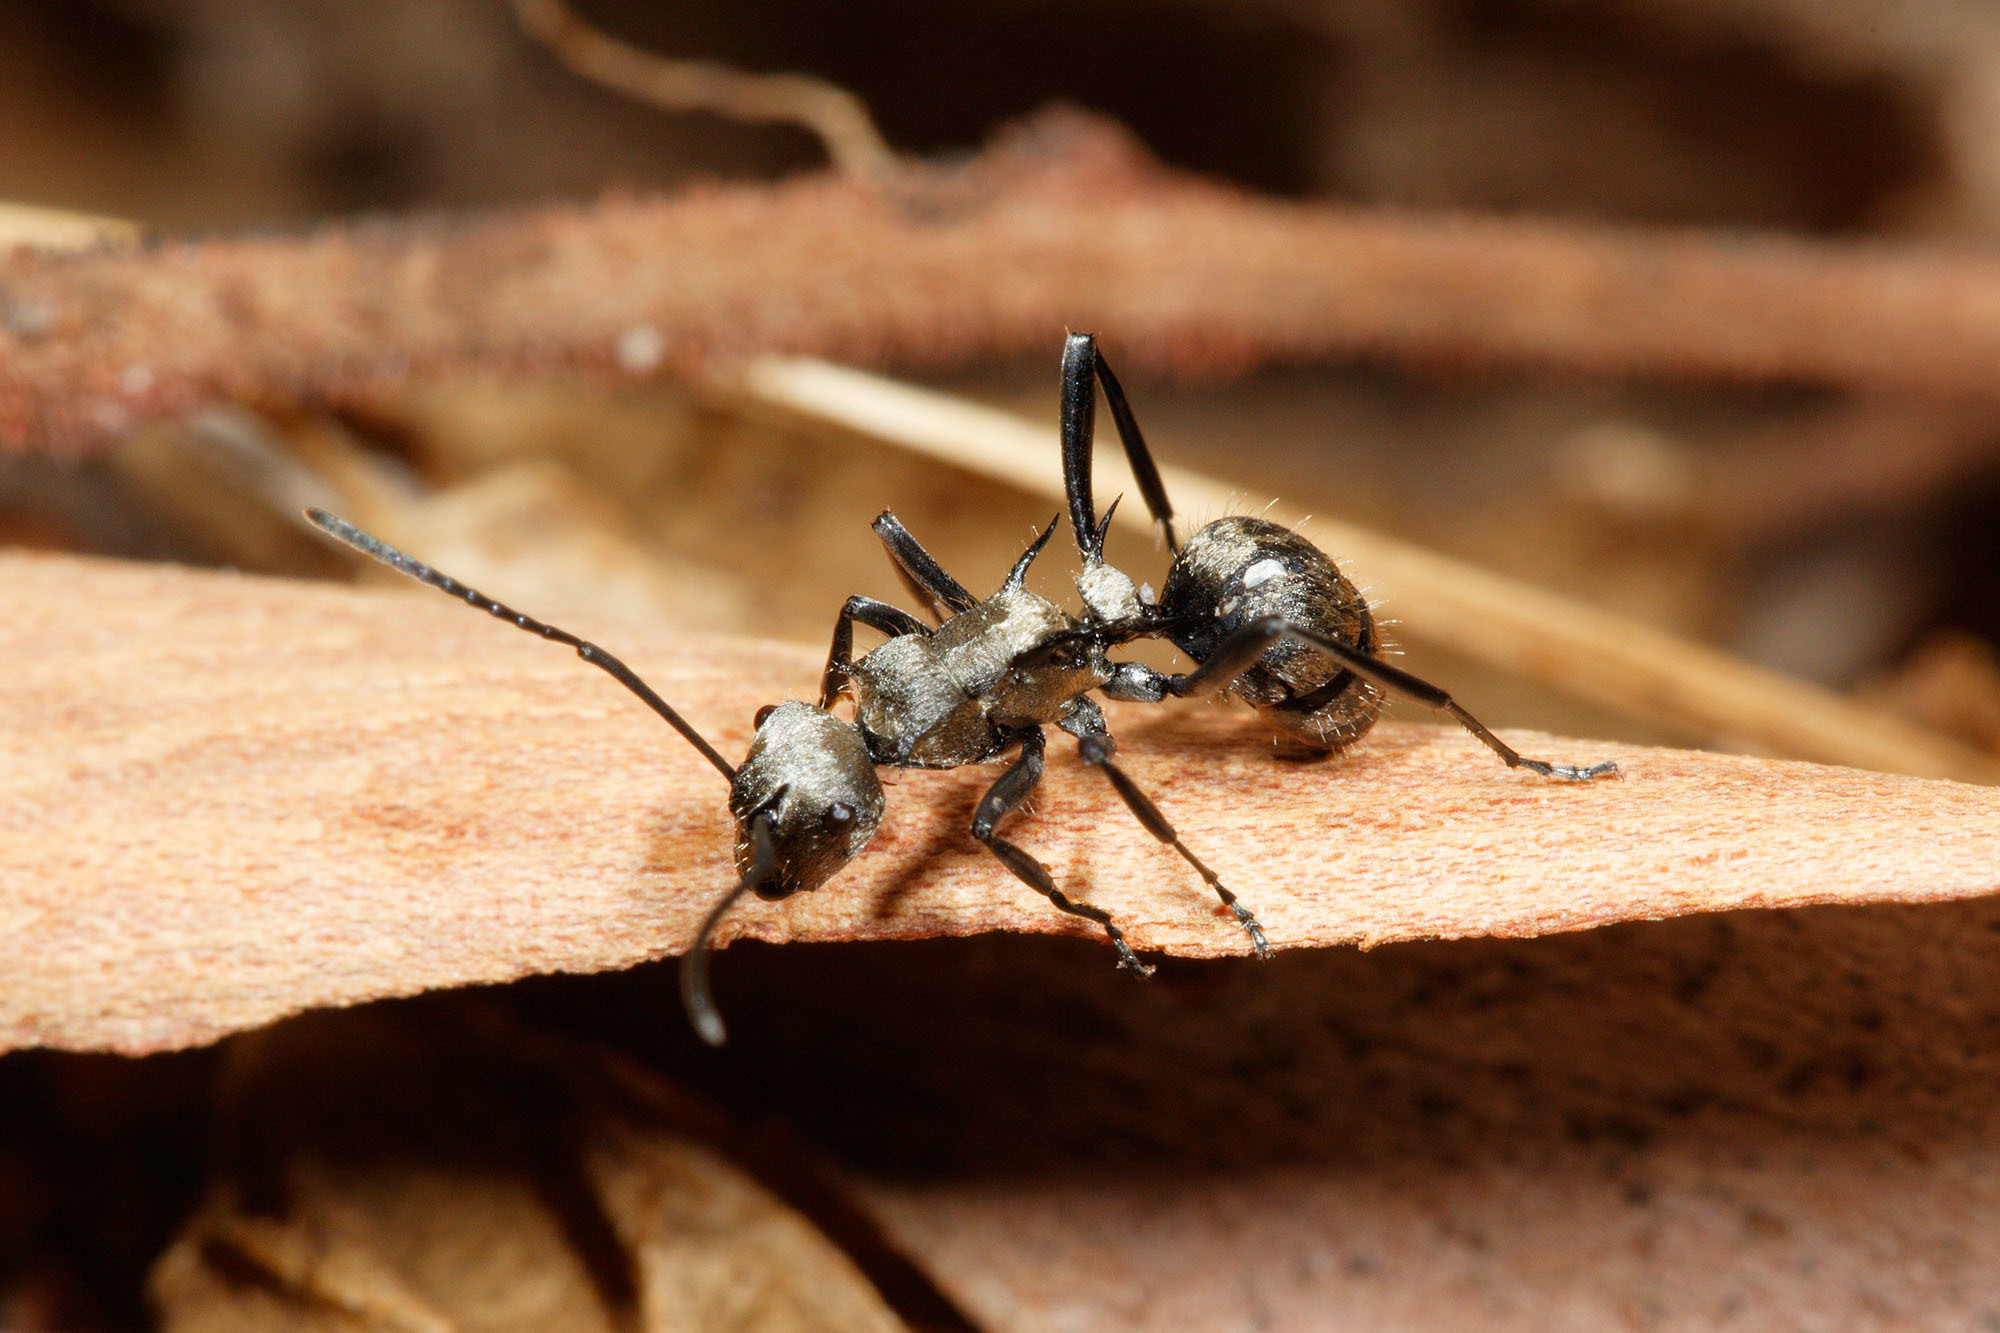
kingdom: Animalia
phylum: Arthropoda
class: Insecta
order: Hymenoptera
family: Formicidae
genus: Polyrhachis
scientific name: Polyrhachis cupreata
